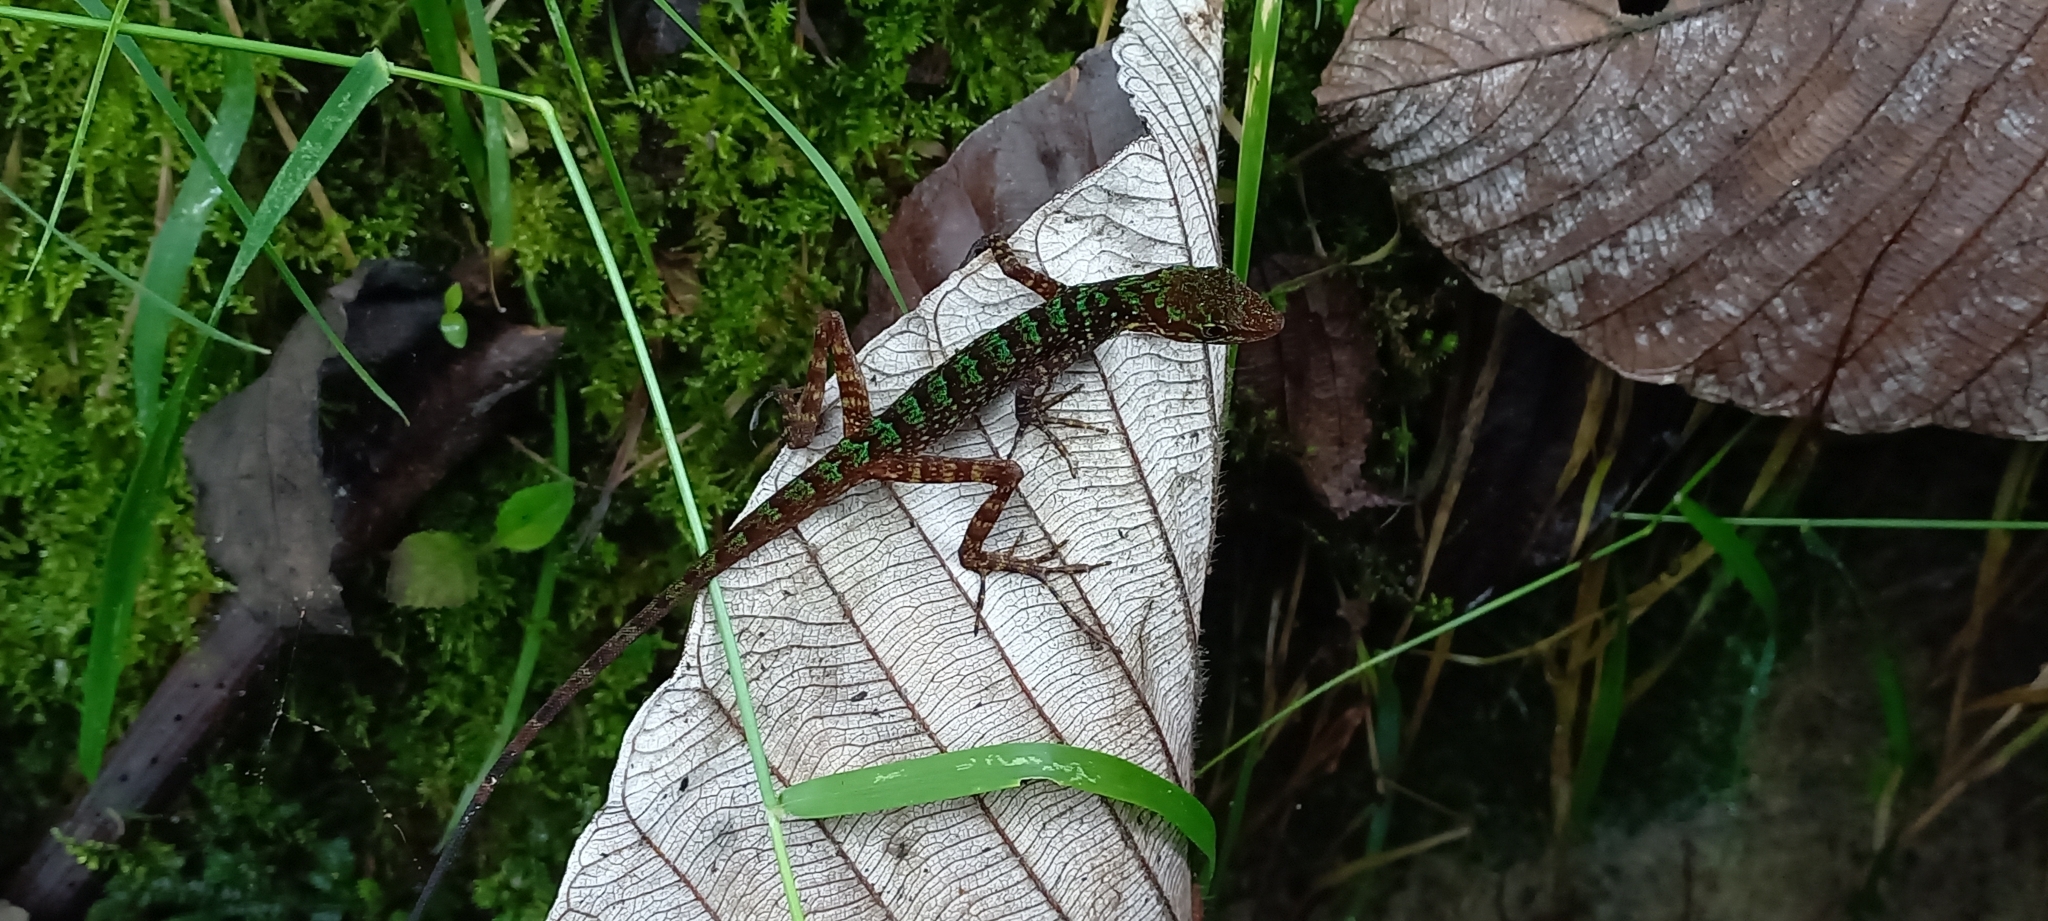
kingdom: Animalia
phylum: Chordata
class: Squamata
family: Dactyloidae
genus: Anolis
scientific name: Anolis ventrimaculatus
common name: Speckled anole
